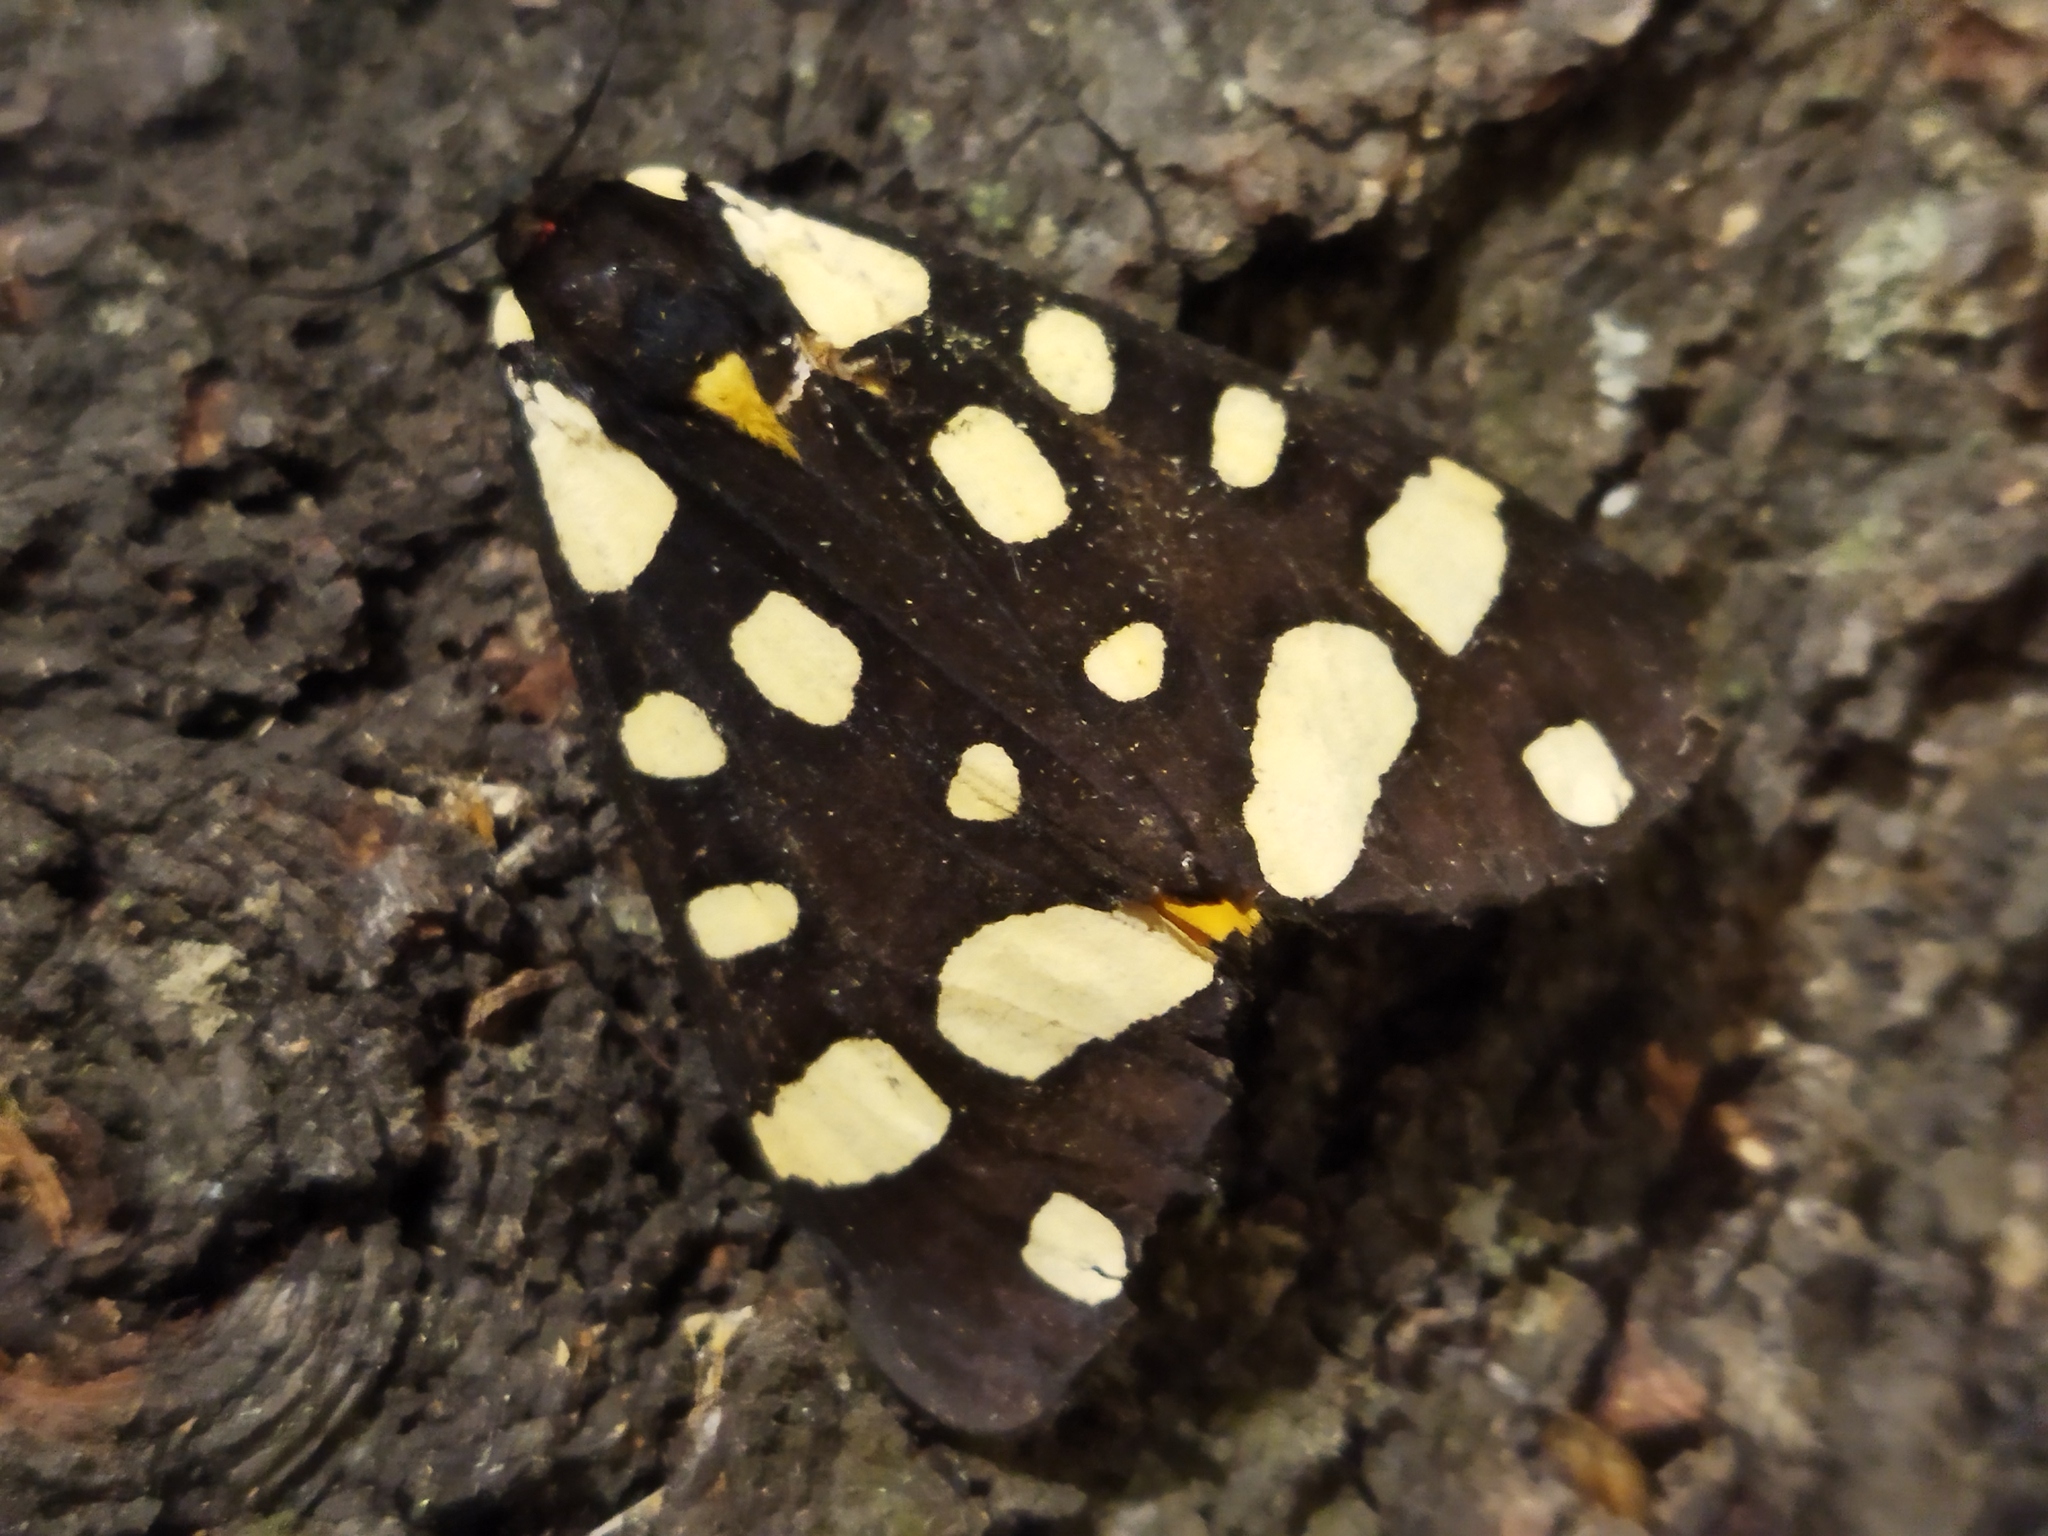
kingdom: Animalia
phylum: Arthropoda
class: Insecta
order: Lepidoptera
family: Erebidae
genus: Epicallia
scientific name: Epicallia villica
